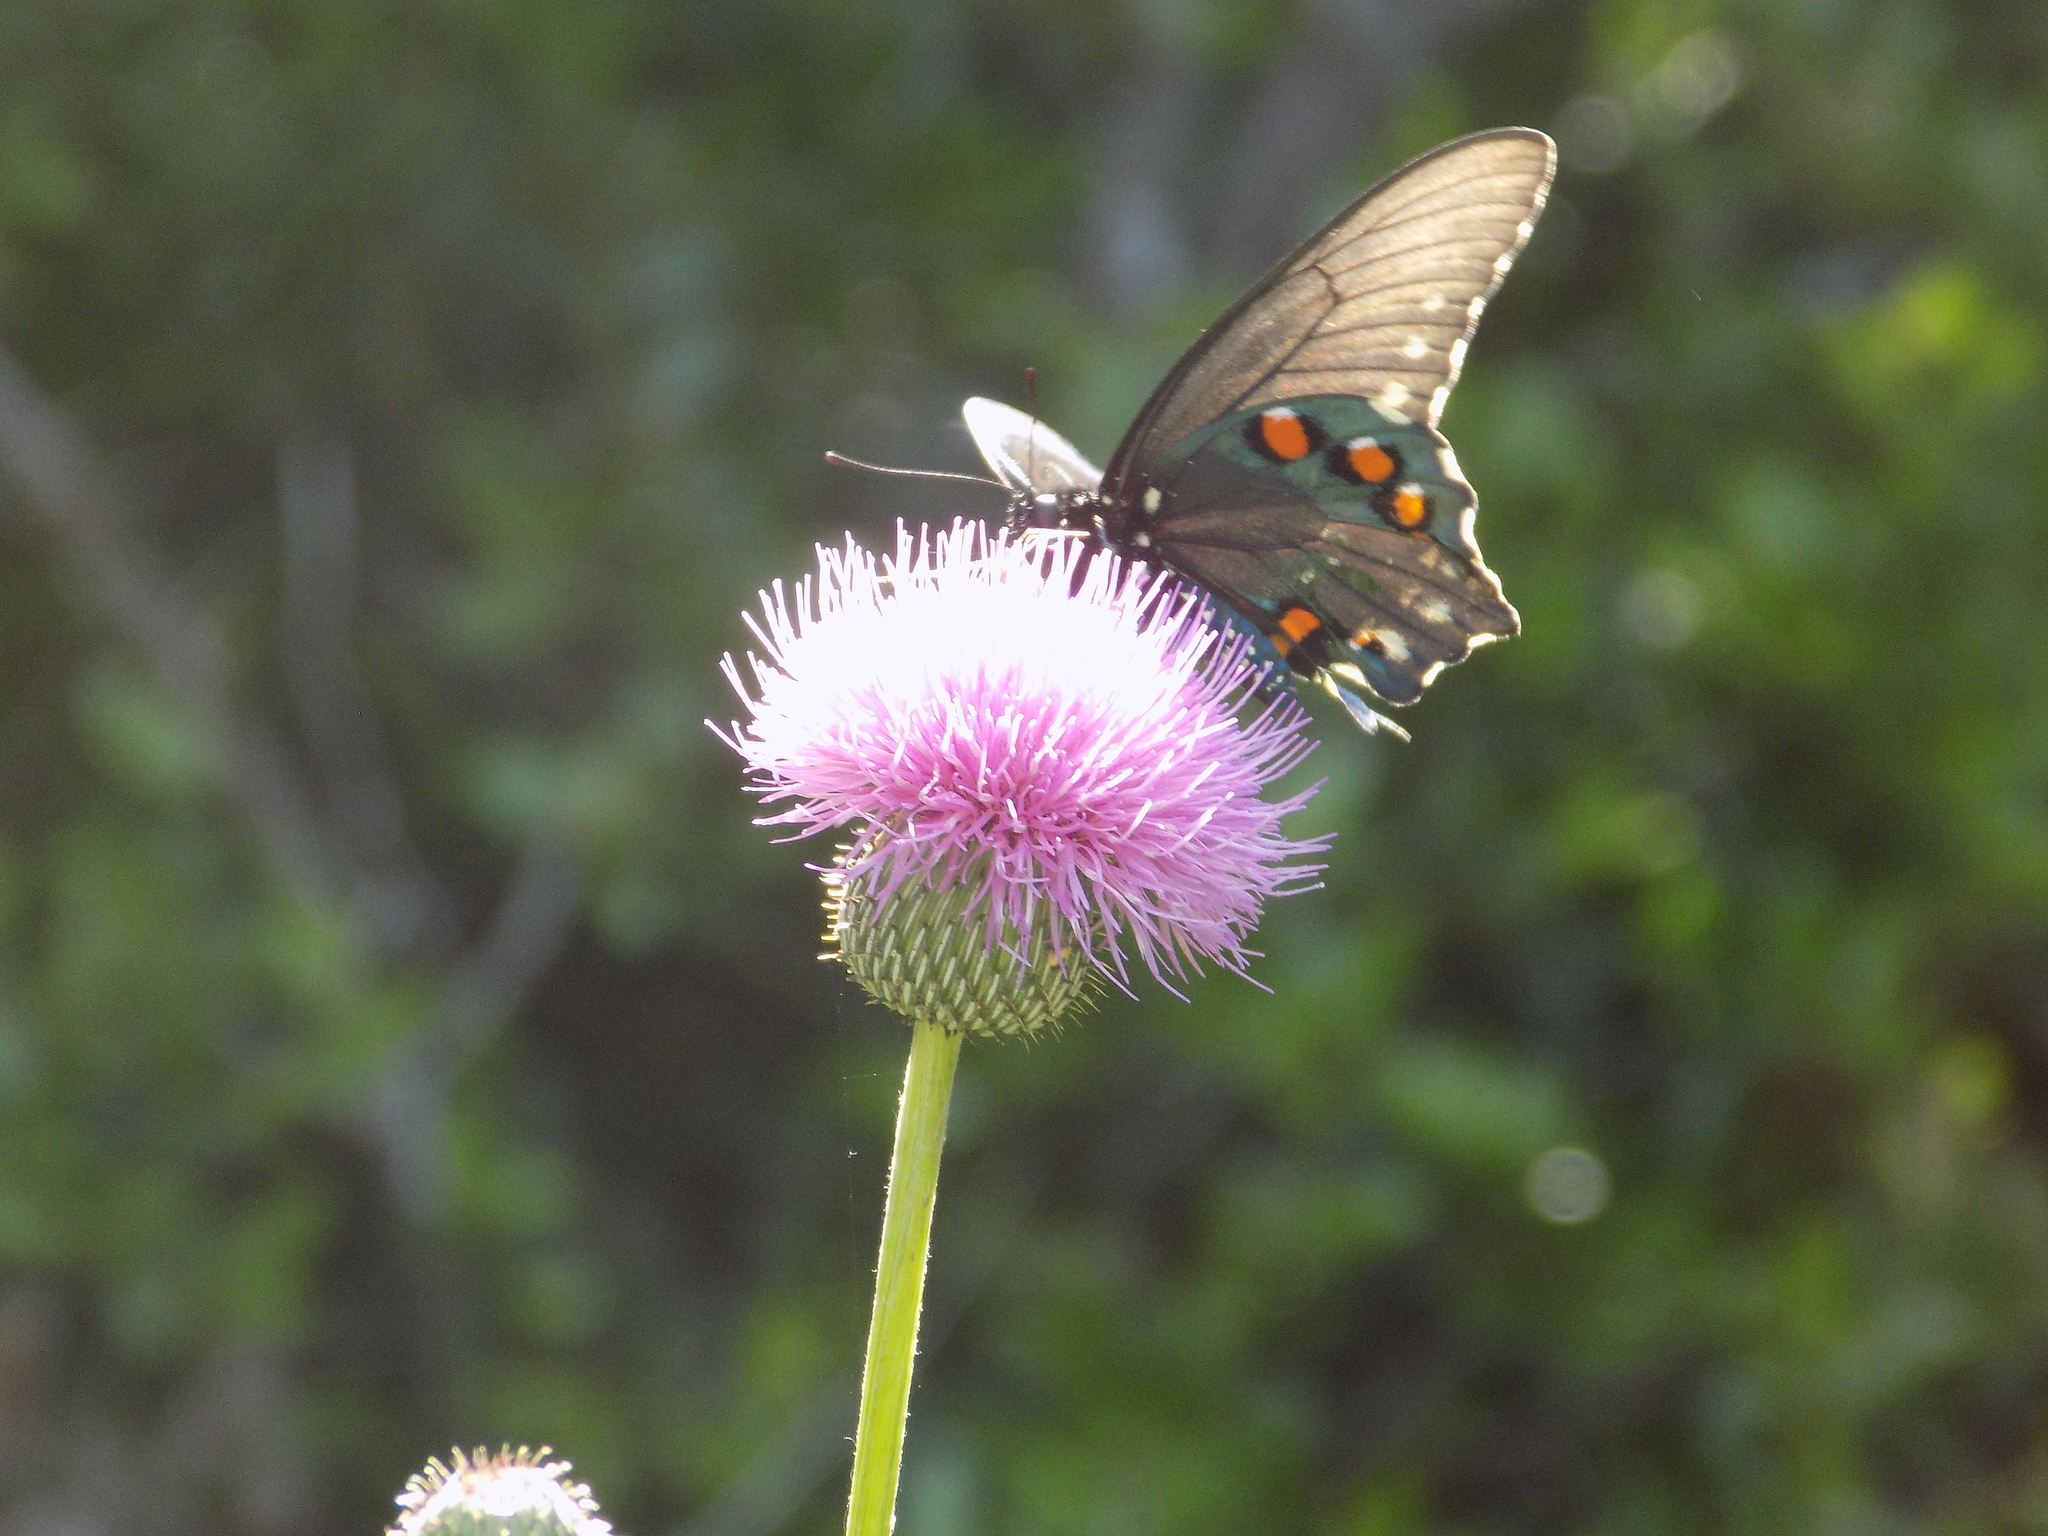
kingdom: Animalia
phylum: Arthropoda
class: Insecta
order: Lepidoptera
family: Papilionidae
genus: Battus
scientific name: Battus philenor
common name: Pipevine swallowtail
